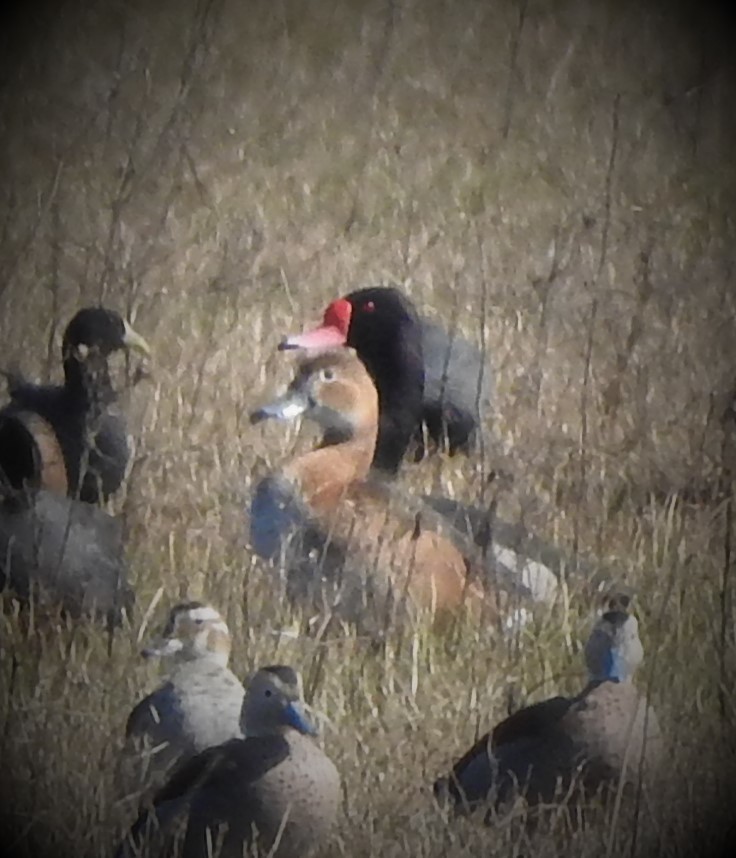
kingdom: Animalia
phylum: Chordata
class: Aves
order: Anseriformes
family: Anatidae
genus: Netta
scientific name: Netta peposaca
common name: Rosy-billed pochard
